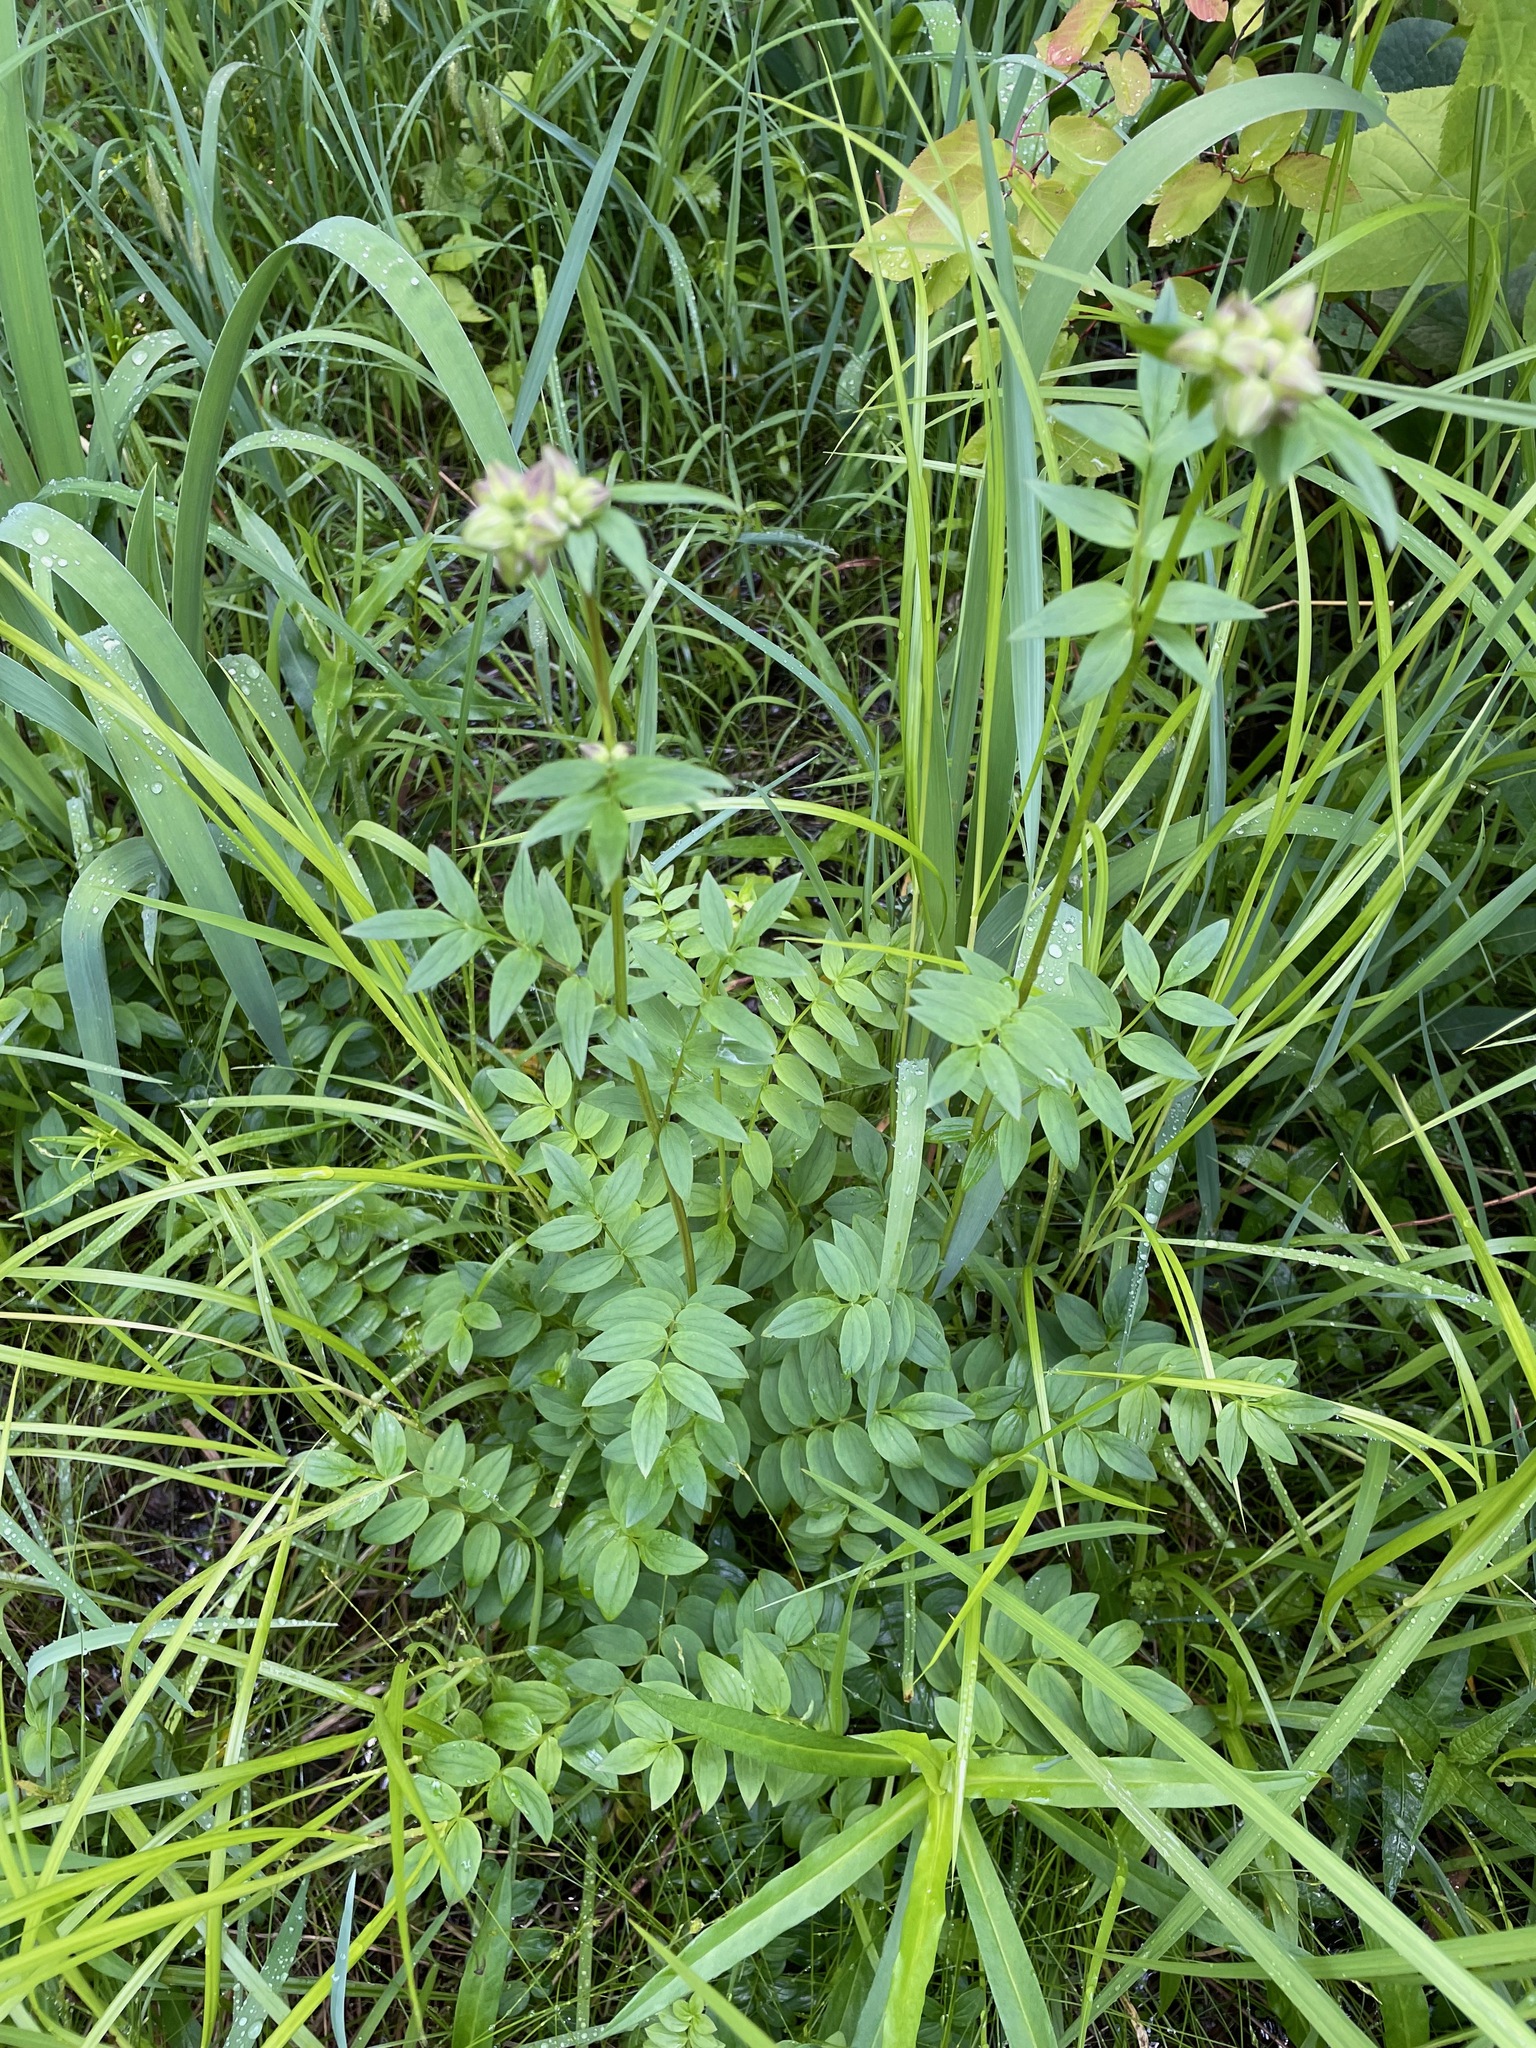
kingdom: Plantae
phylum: Tracheophyta
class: Magnoliopsida
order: Ericales
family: Polemoniaceae
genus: Polemonium
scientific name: Polemonium vanbruntiae
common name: Bog jacob's-ladder
